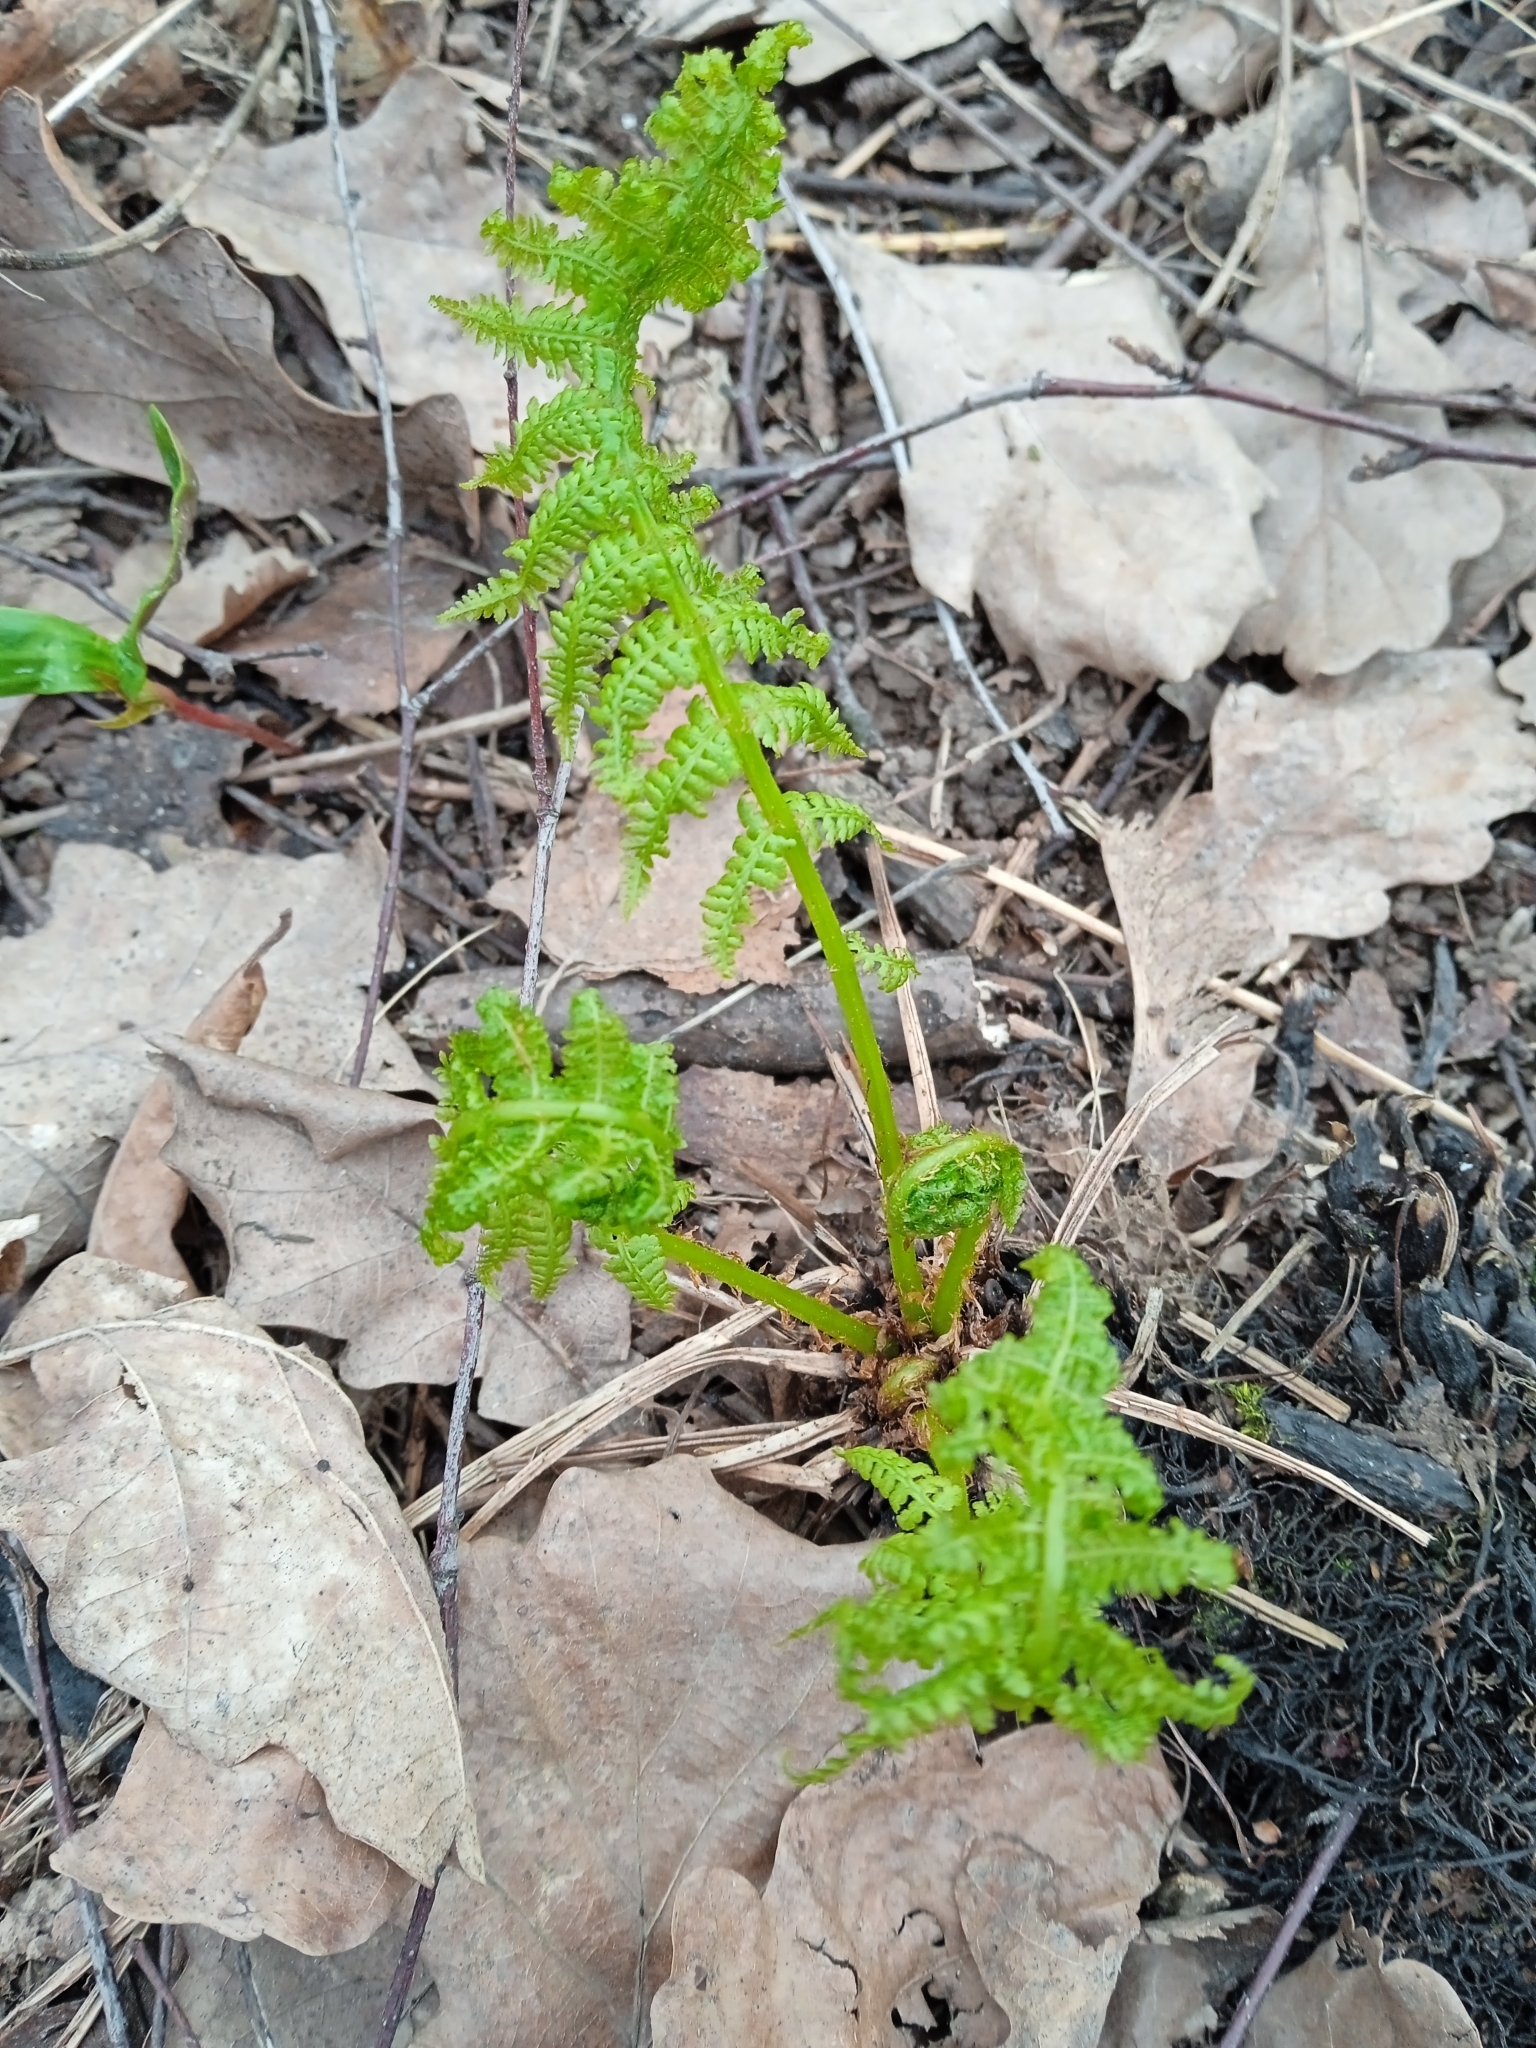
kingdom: Plantae
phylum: Tracheophyta
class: Polypodiopsida
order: Polypodiales
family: Athyriaceae
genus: Athyrium
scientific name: Athyrium filix-femina
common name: Lady fern
